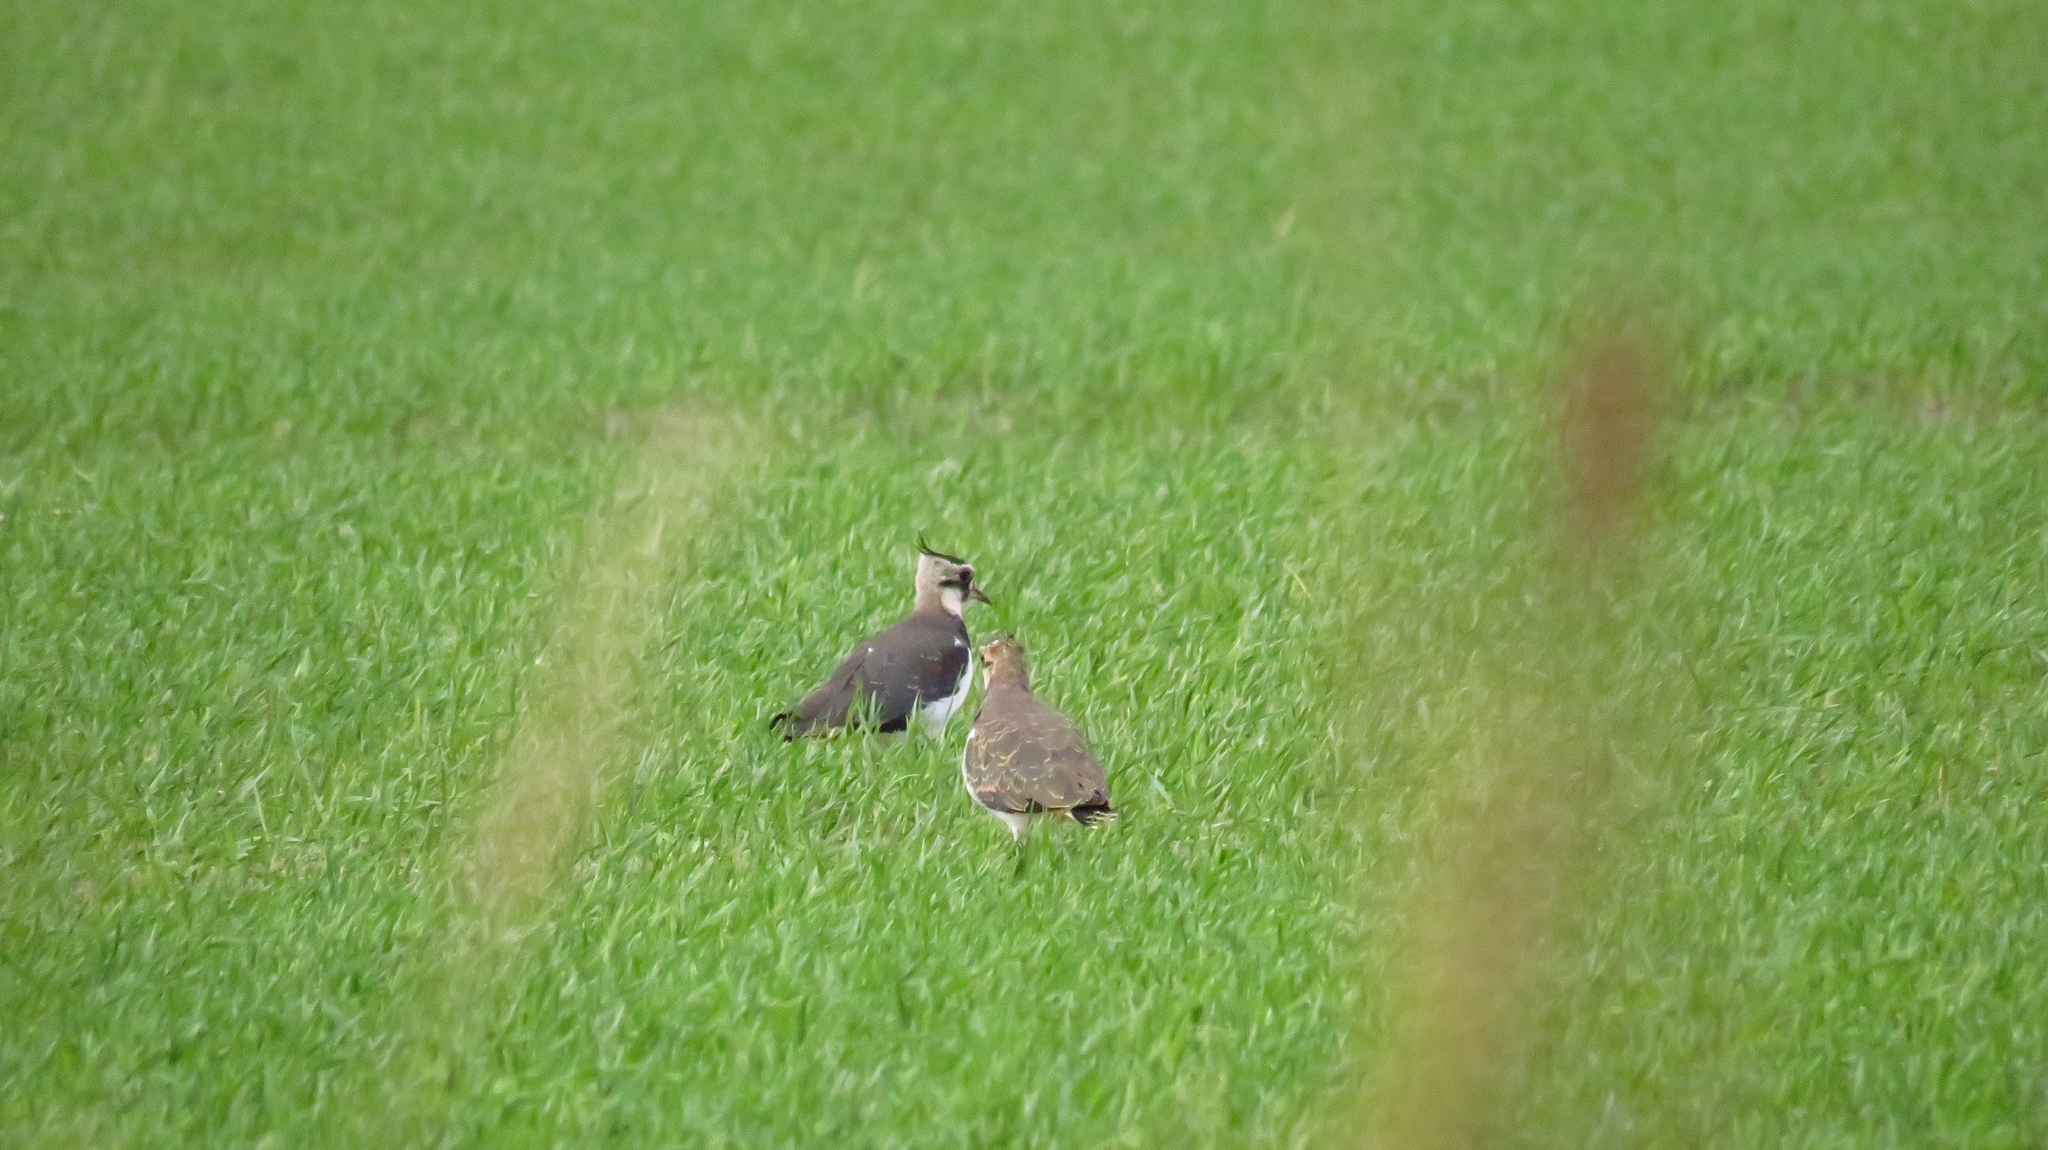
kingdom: Animalia
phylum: Chordata
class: Aves
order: Charadriiformes
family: Charadriidae
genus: Vanellus
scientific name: Vanellus vanellus
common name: Northern lapwing
